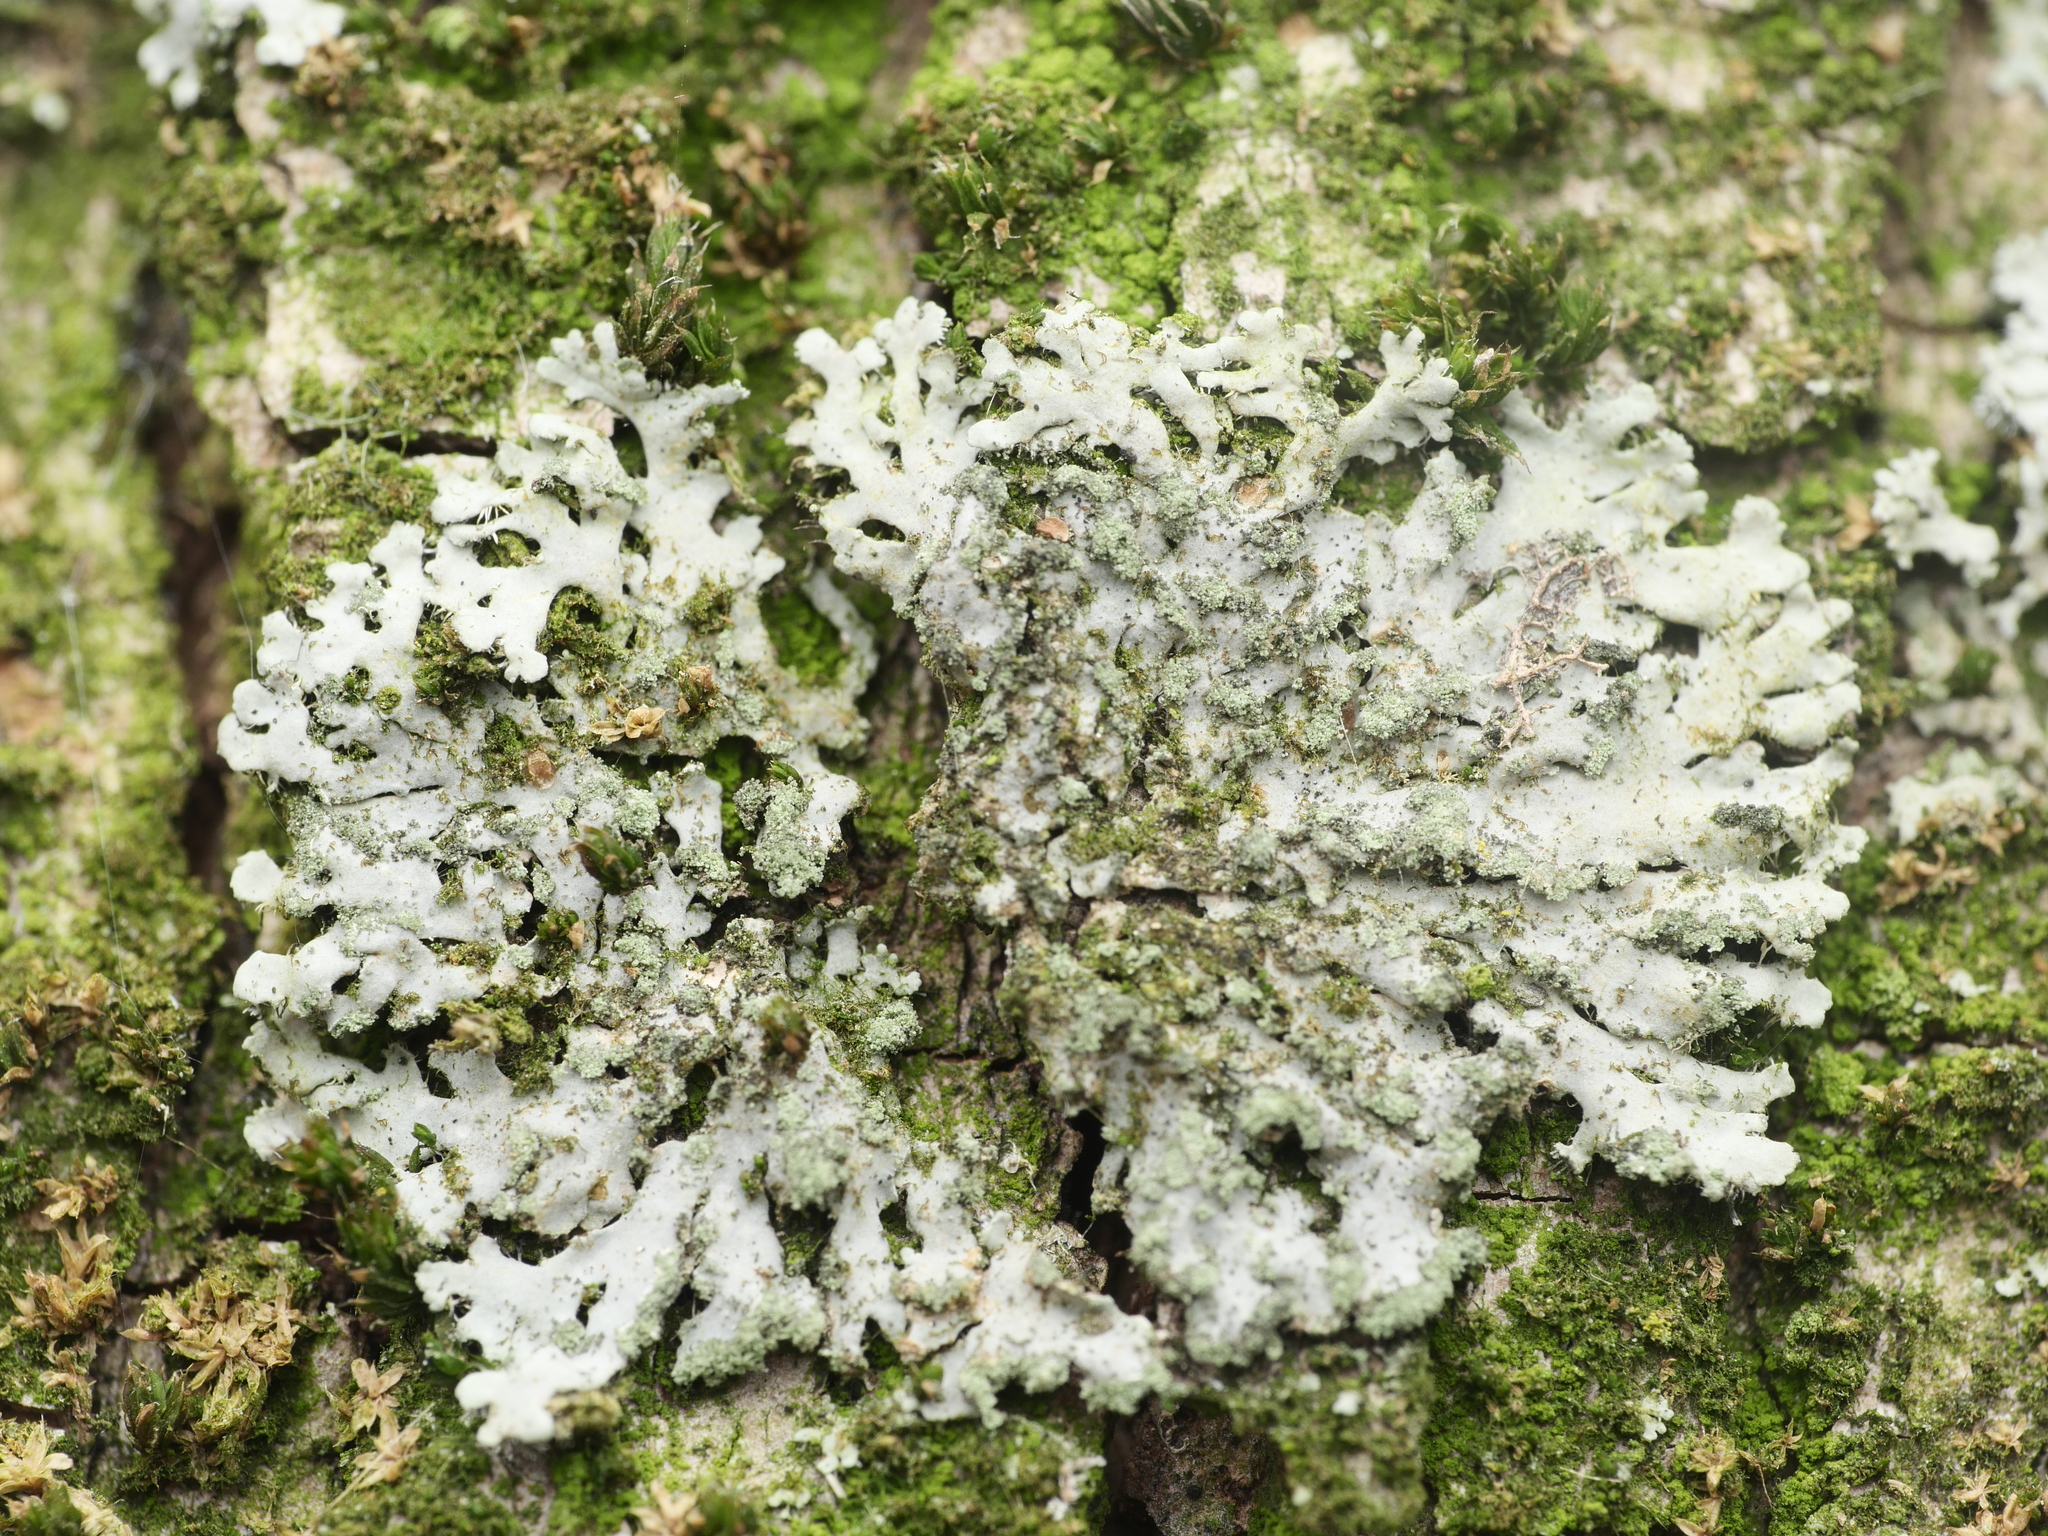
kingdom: Fungi
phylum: Ascomycota
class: Lecanoromycetes
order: Caliciales
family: Physciaceae
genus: Phaeophyscia
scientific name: Phaeophyscia orbicularis
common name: Mealy shadow lichen
